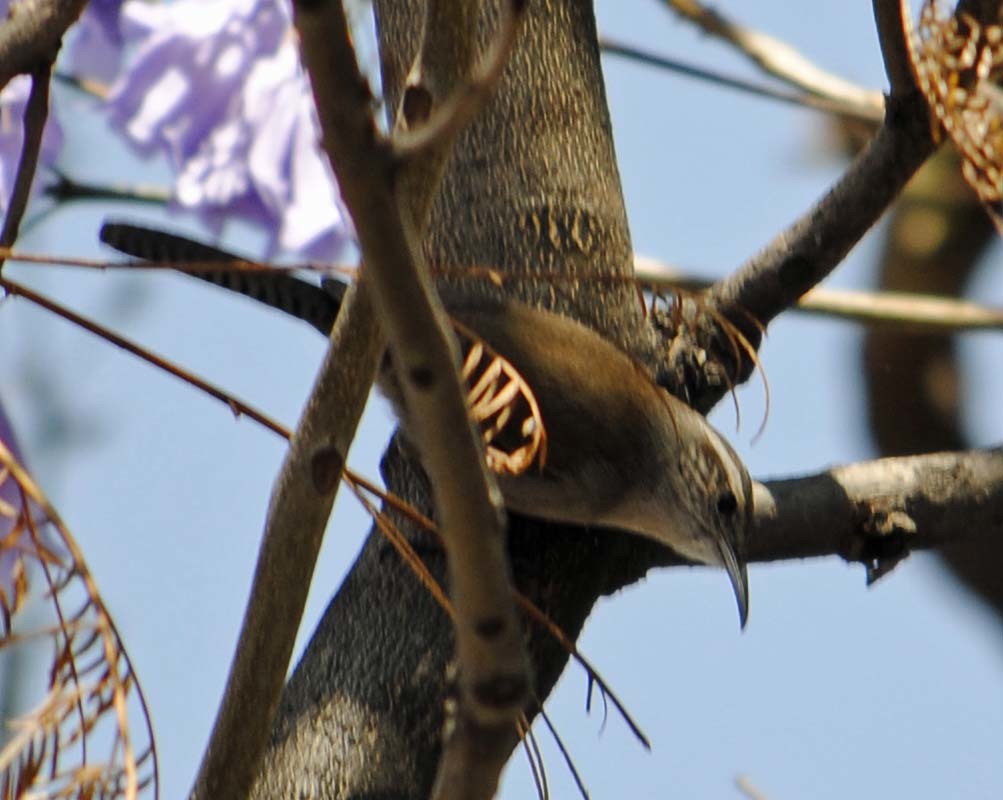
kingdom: Animalia
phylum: Chordata
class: Aves
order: Passeriformes
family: Troglodytidae
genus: Thryomanes
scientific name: Thryomanes bewickii
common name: Bewick's wren
